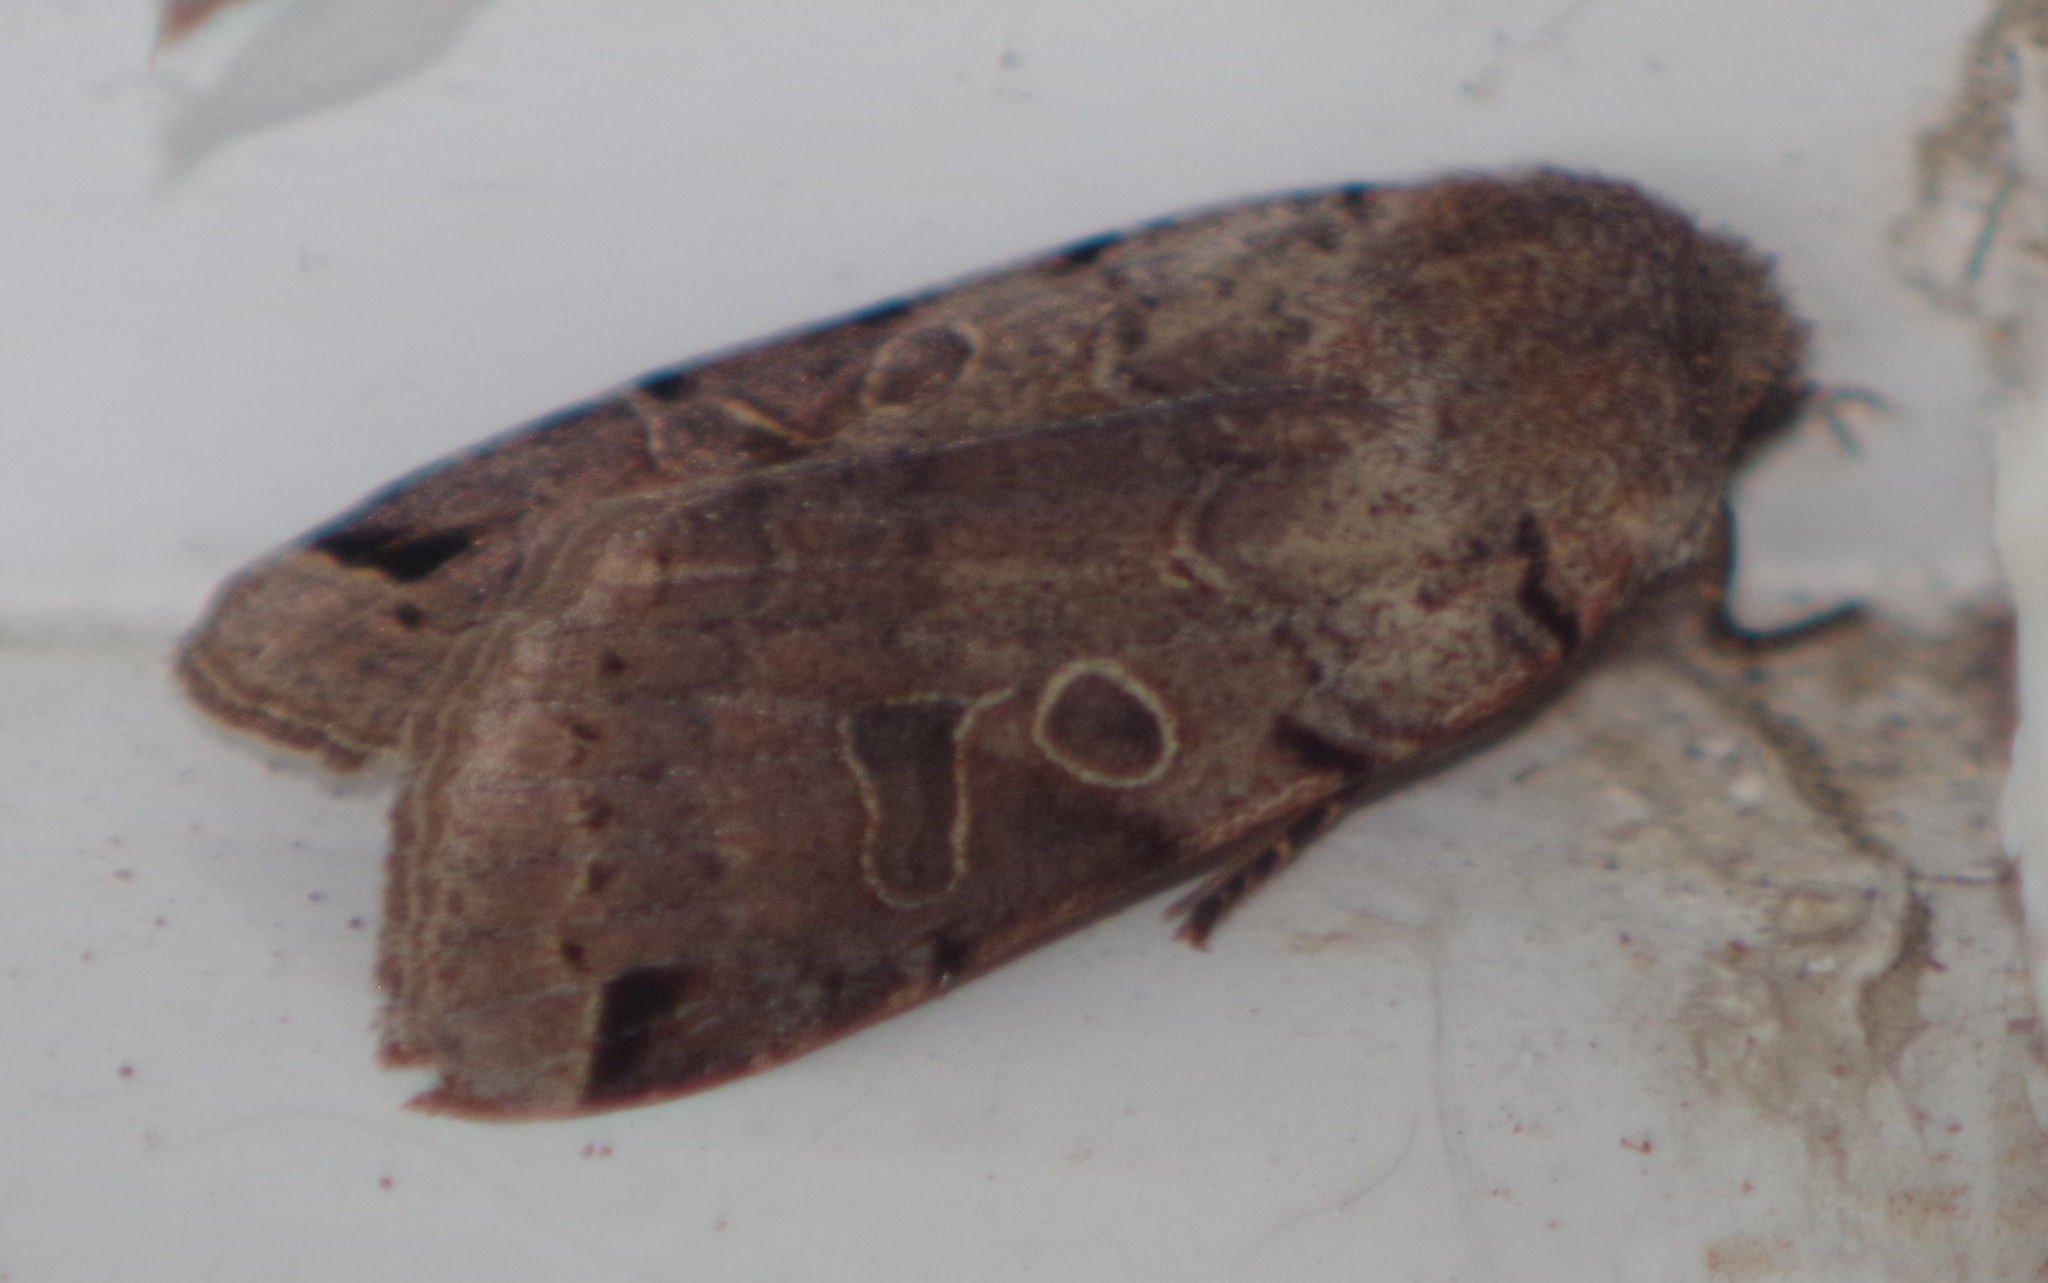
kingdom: Animalia
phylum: Arthropoda
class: Insecta
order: Lepidoptera
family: Noctuidae
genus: Agrochola
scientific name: Agrochola litura
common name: Brown-spot pinion
